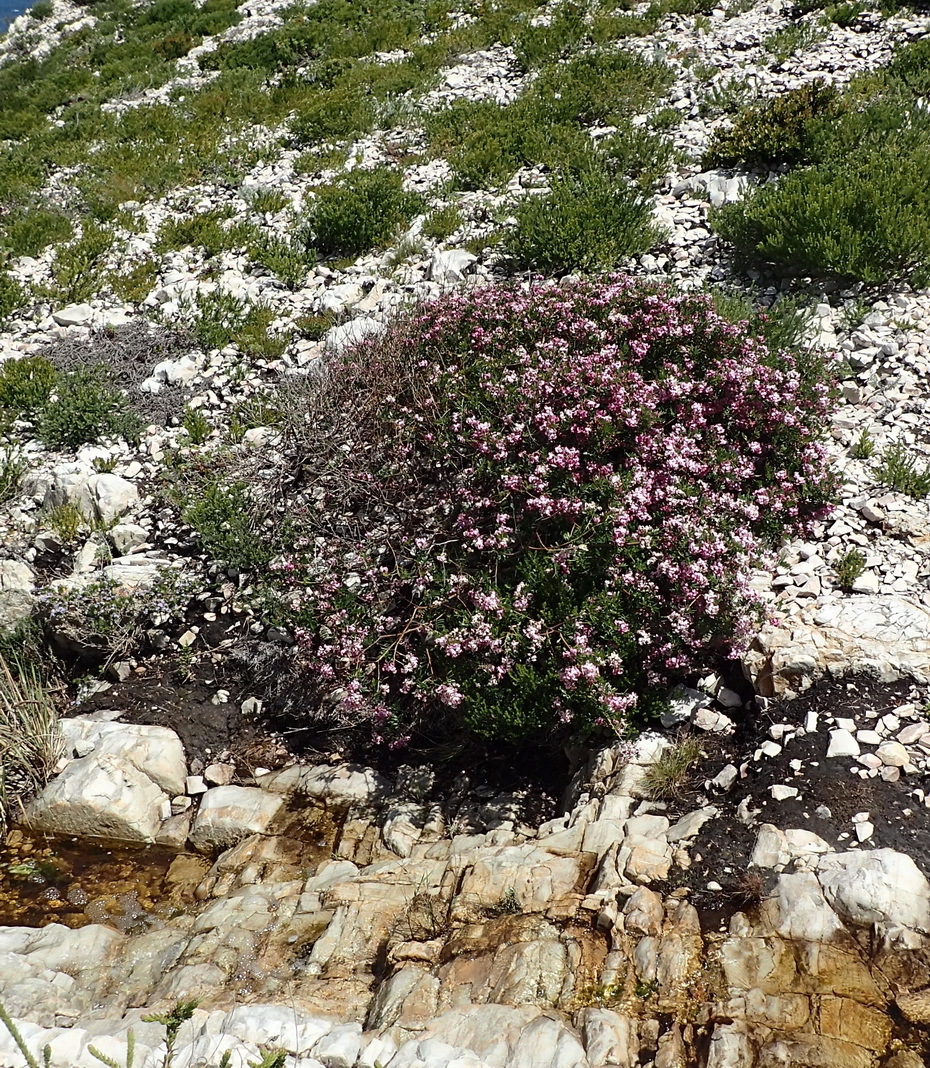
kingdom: Plantae
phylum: Tracheophyta
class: Magnoliopsida
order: Fabales
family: Fabaceae
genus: Virgilia
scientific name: Virgilia divaricata
